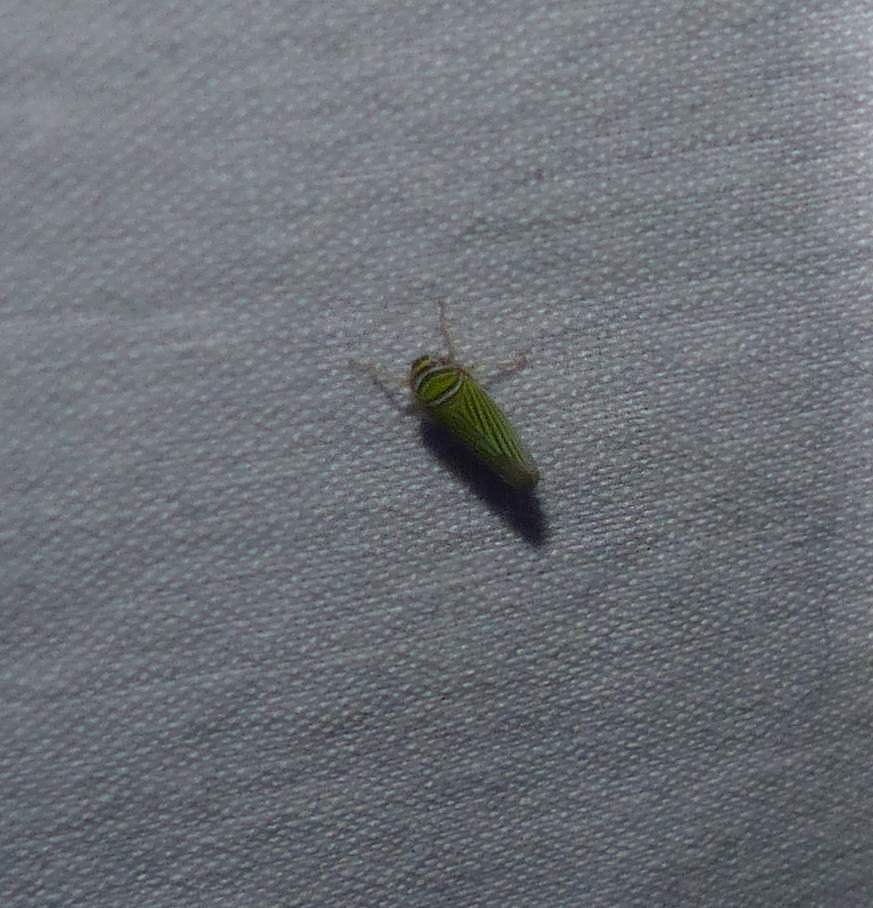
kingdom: Animalia
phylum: Arthropoda
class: Insecta
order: Hemiptera
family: Cicadellidae
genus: Tylozygus
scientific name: Tylozygus bifidus
